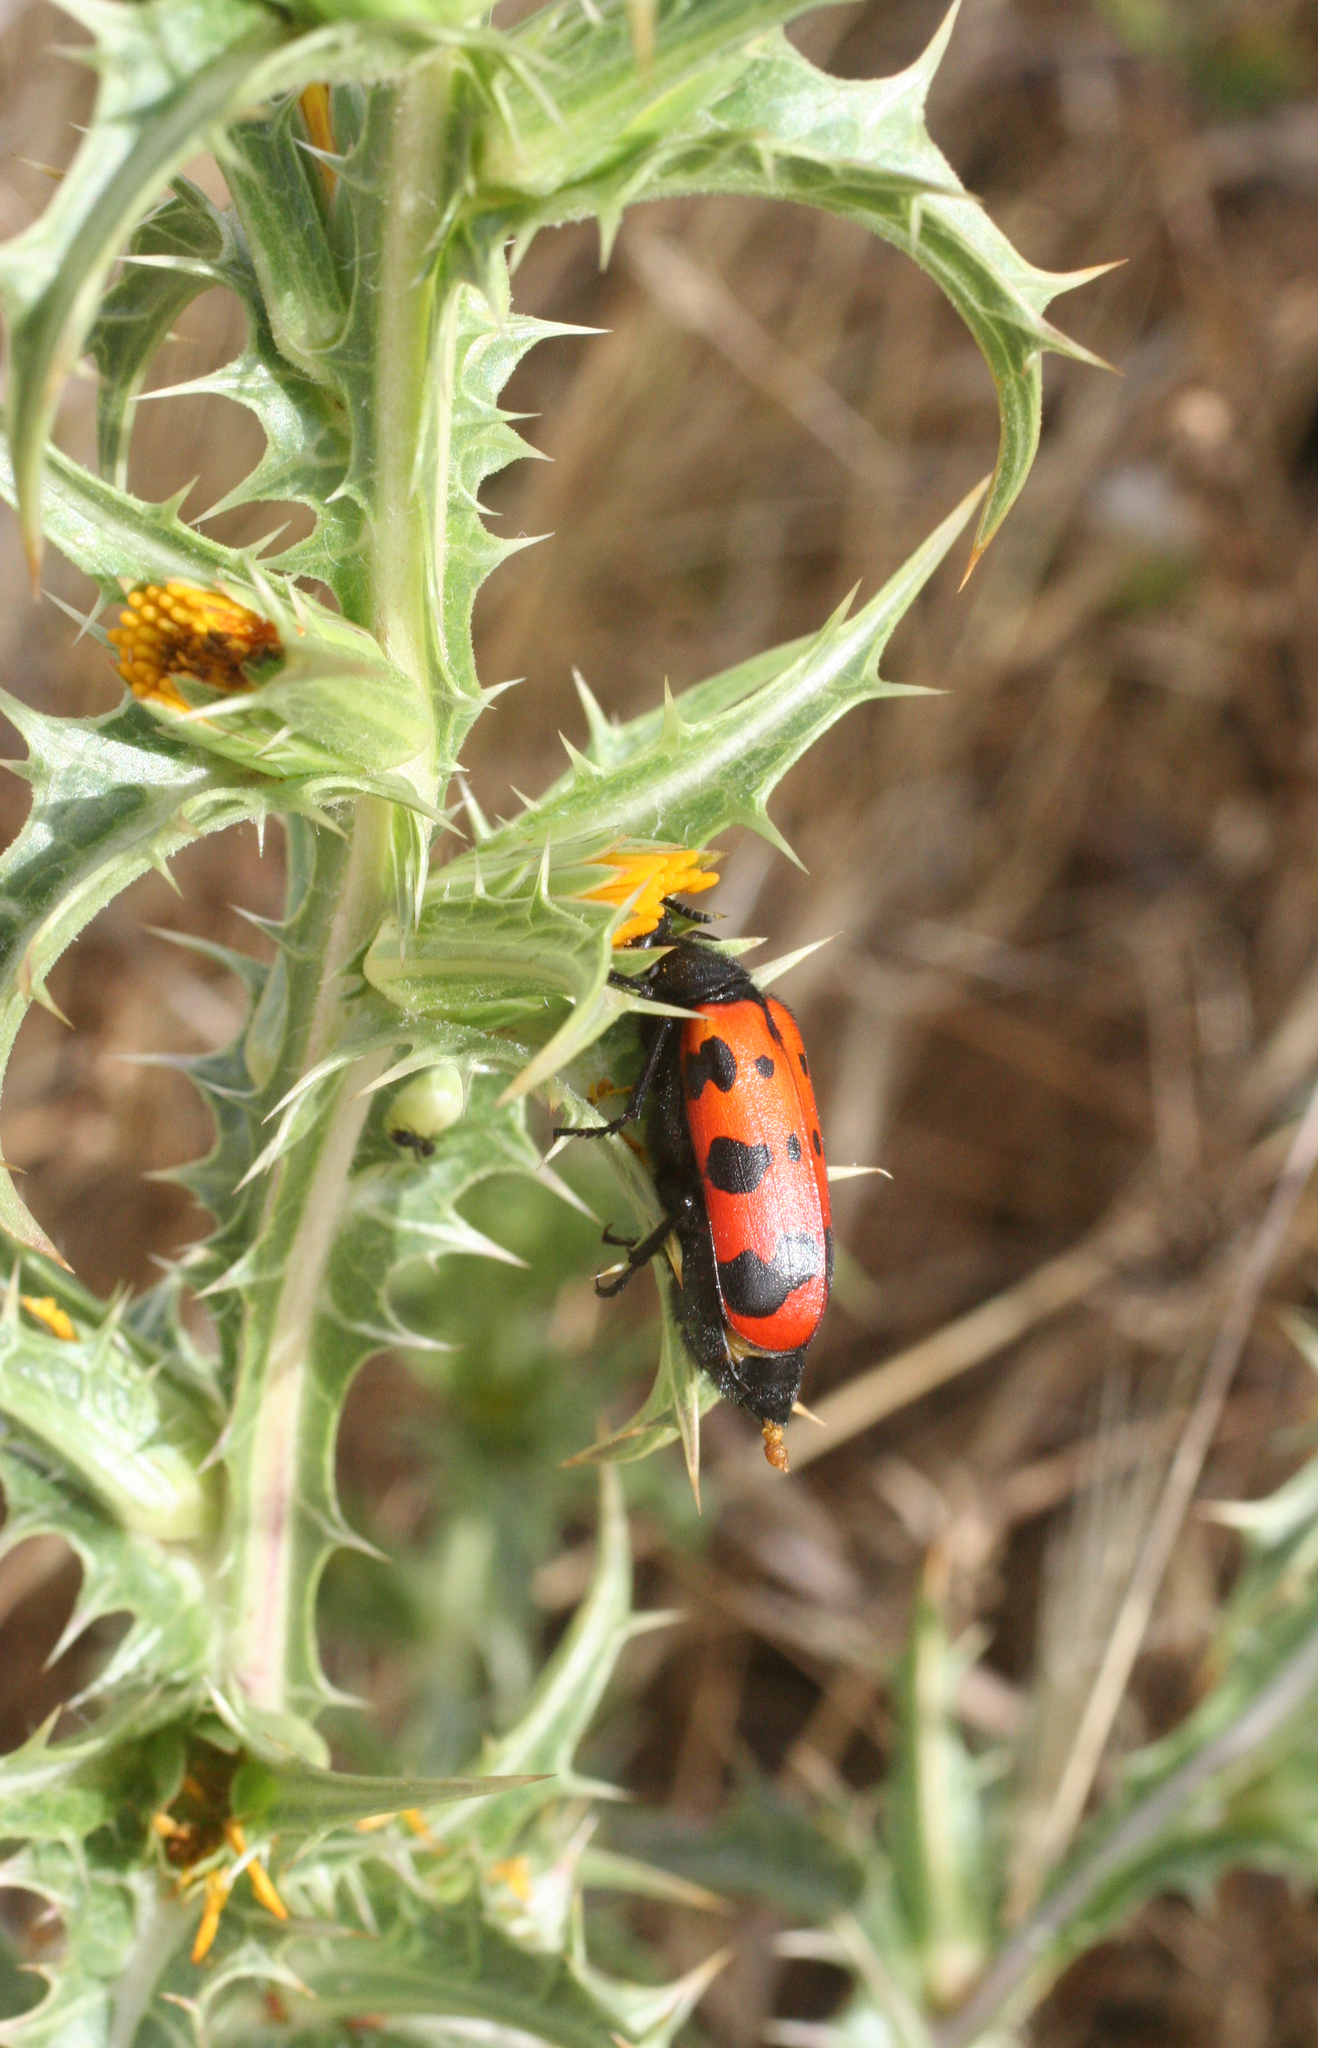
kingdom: Animalia
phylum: Arthropoda
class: Insecta
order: Coleoptera
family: Meloidae
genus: Croscherichia
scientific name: Croscherichia paykulli
